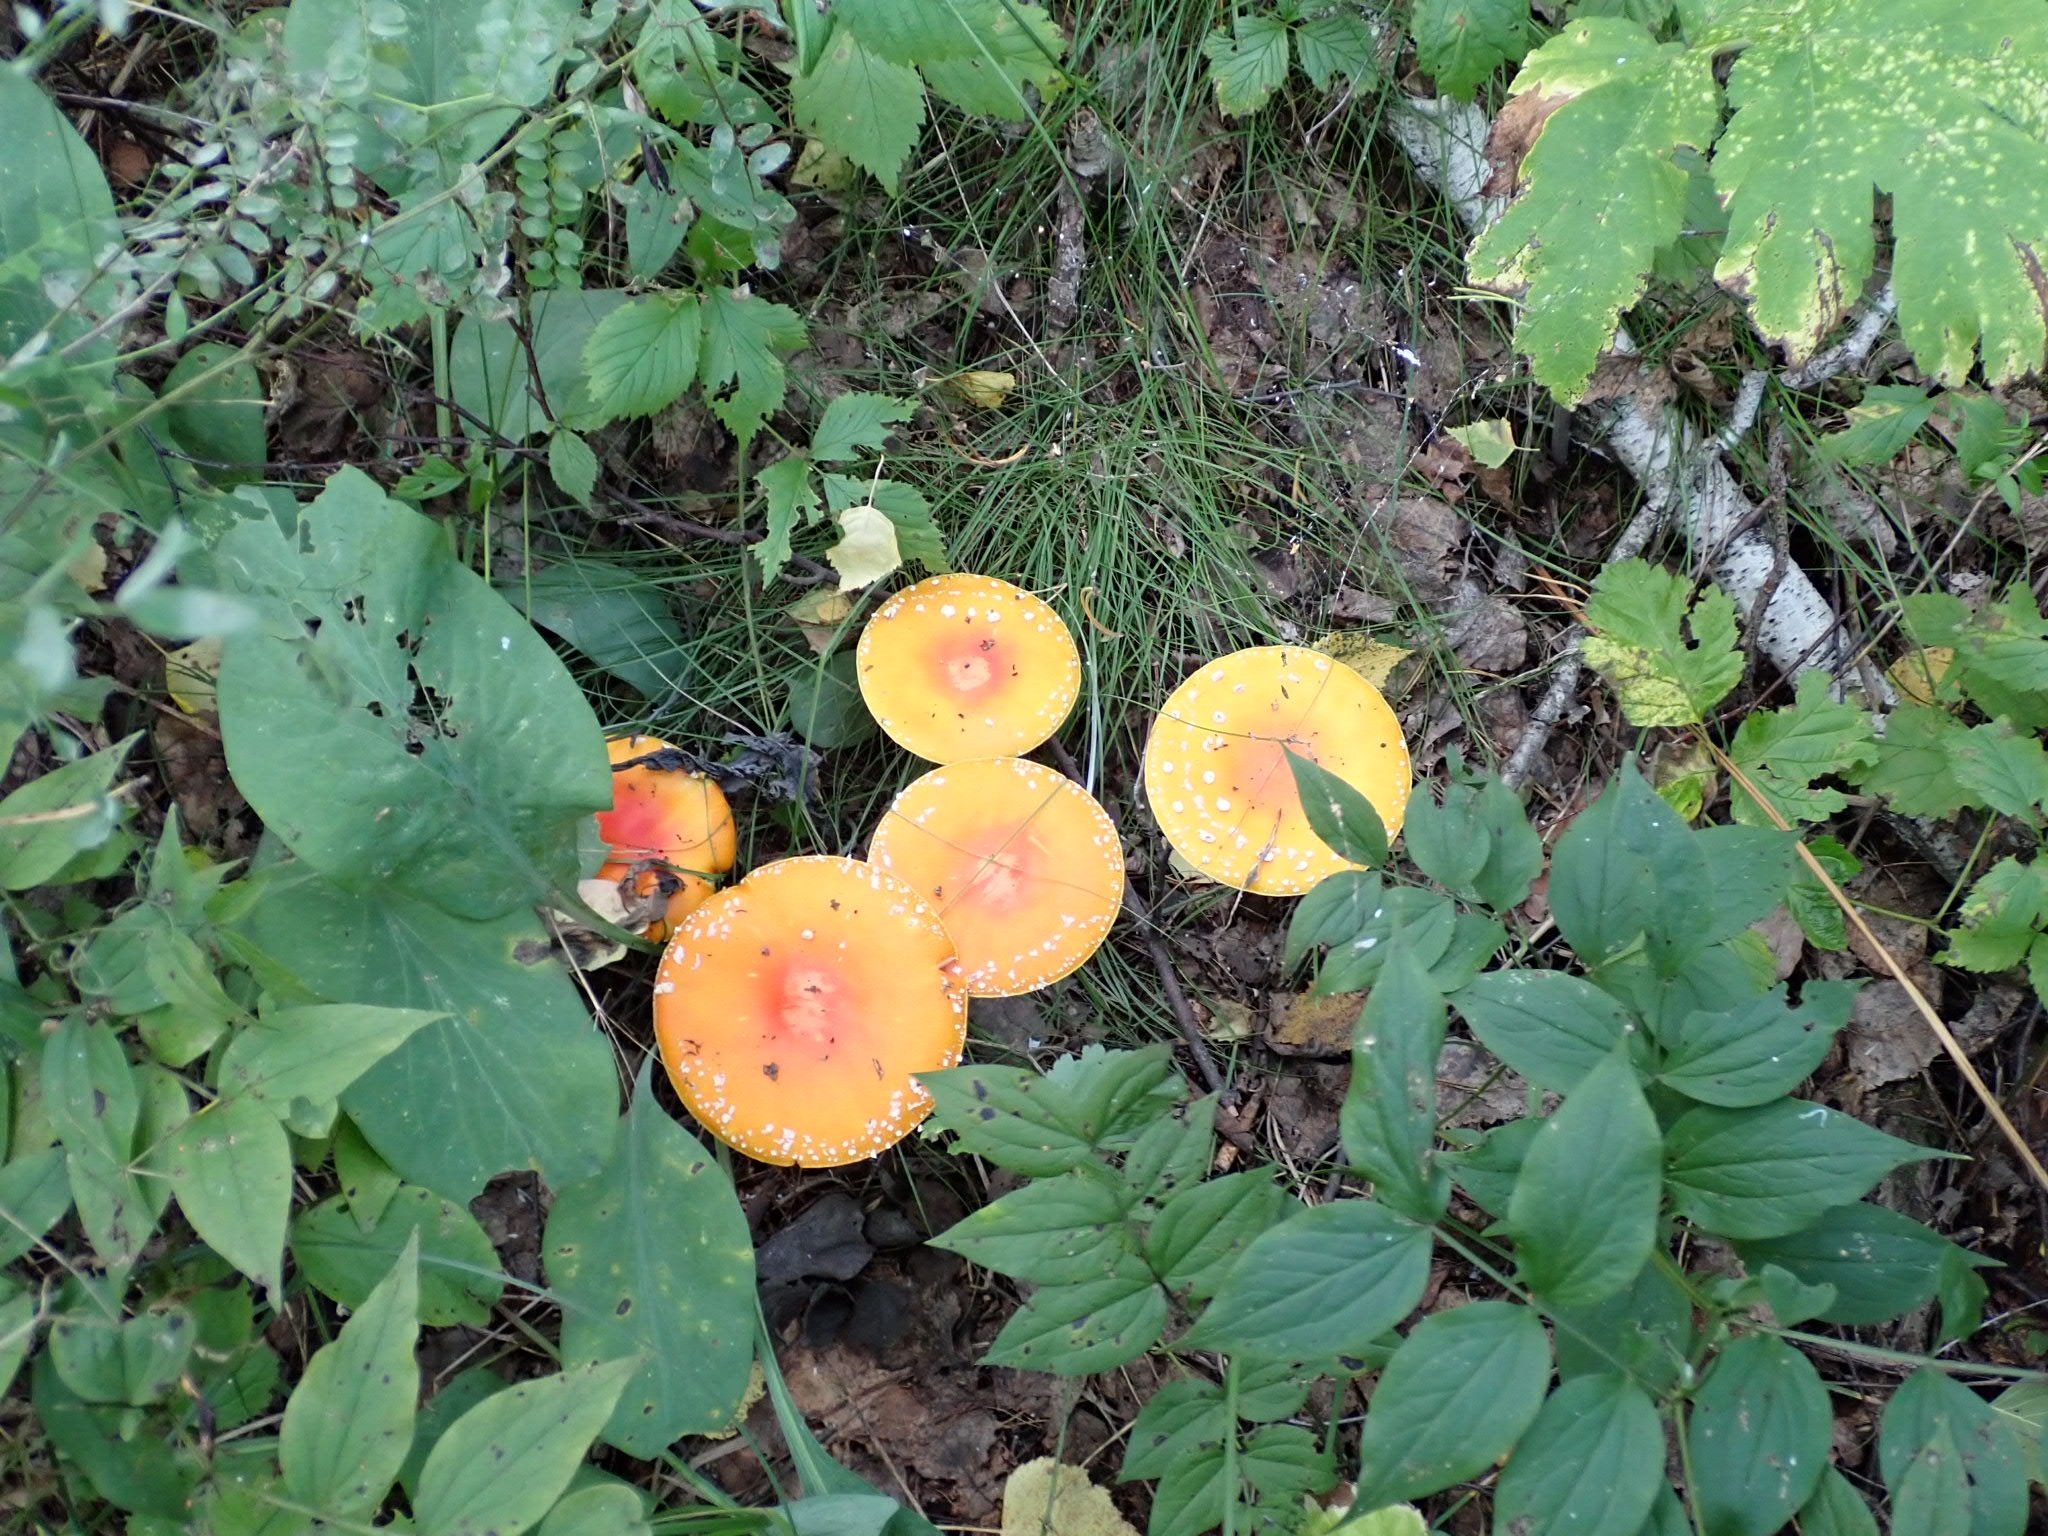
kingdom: Fungi
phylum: Basidiomycota
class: Agaricomycetes
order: Agaricales
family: Amanitaceae
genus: Amanita
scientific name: Amanita muscaria
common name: Fly agaric
